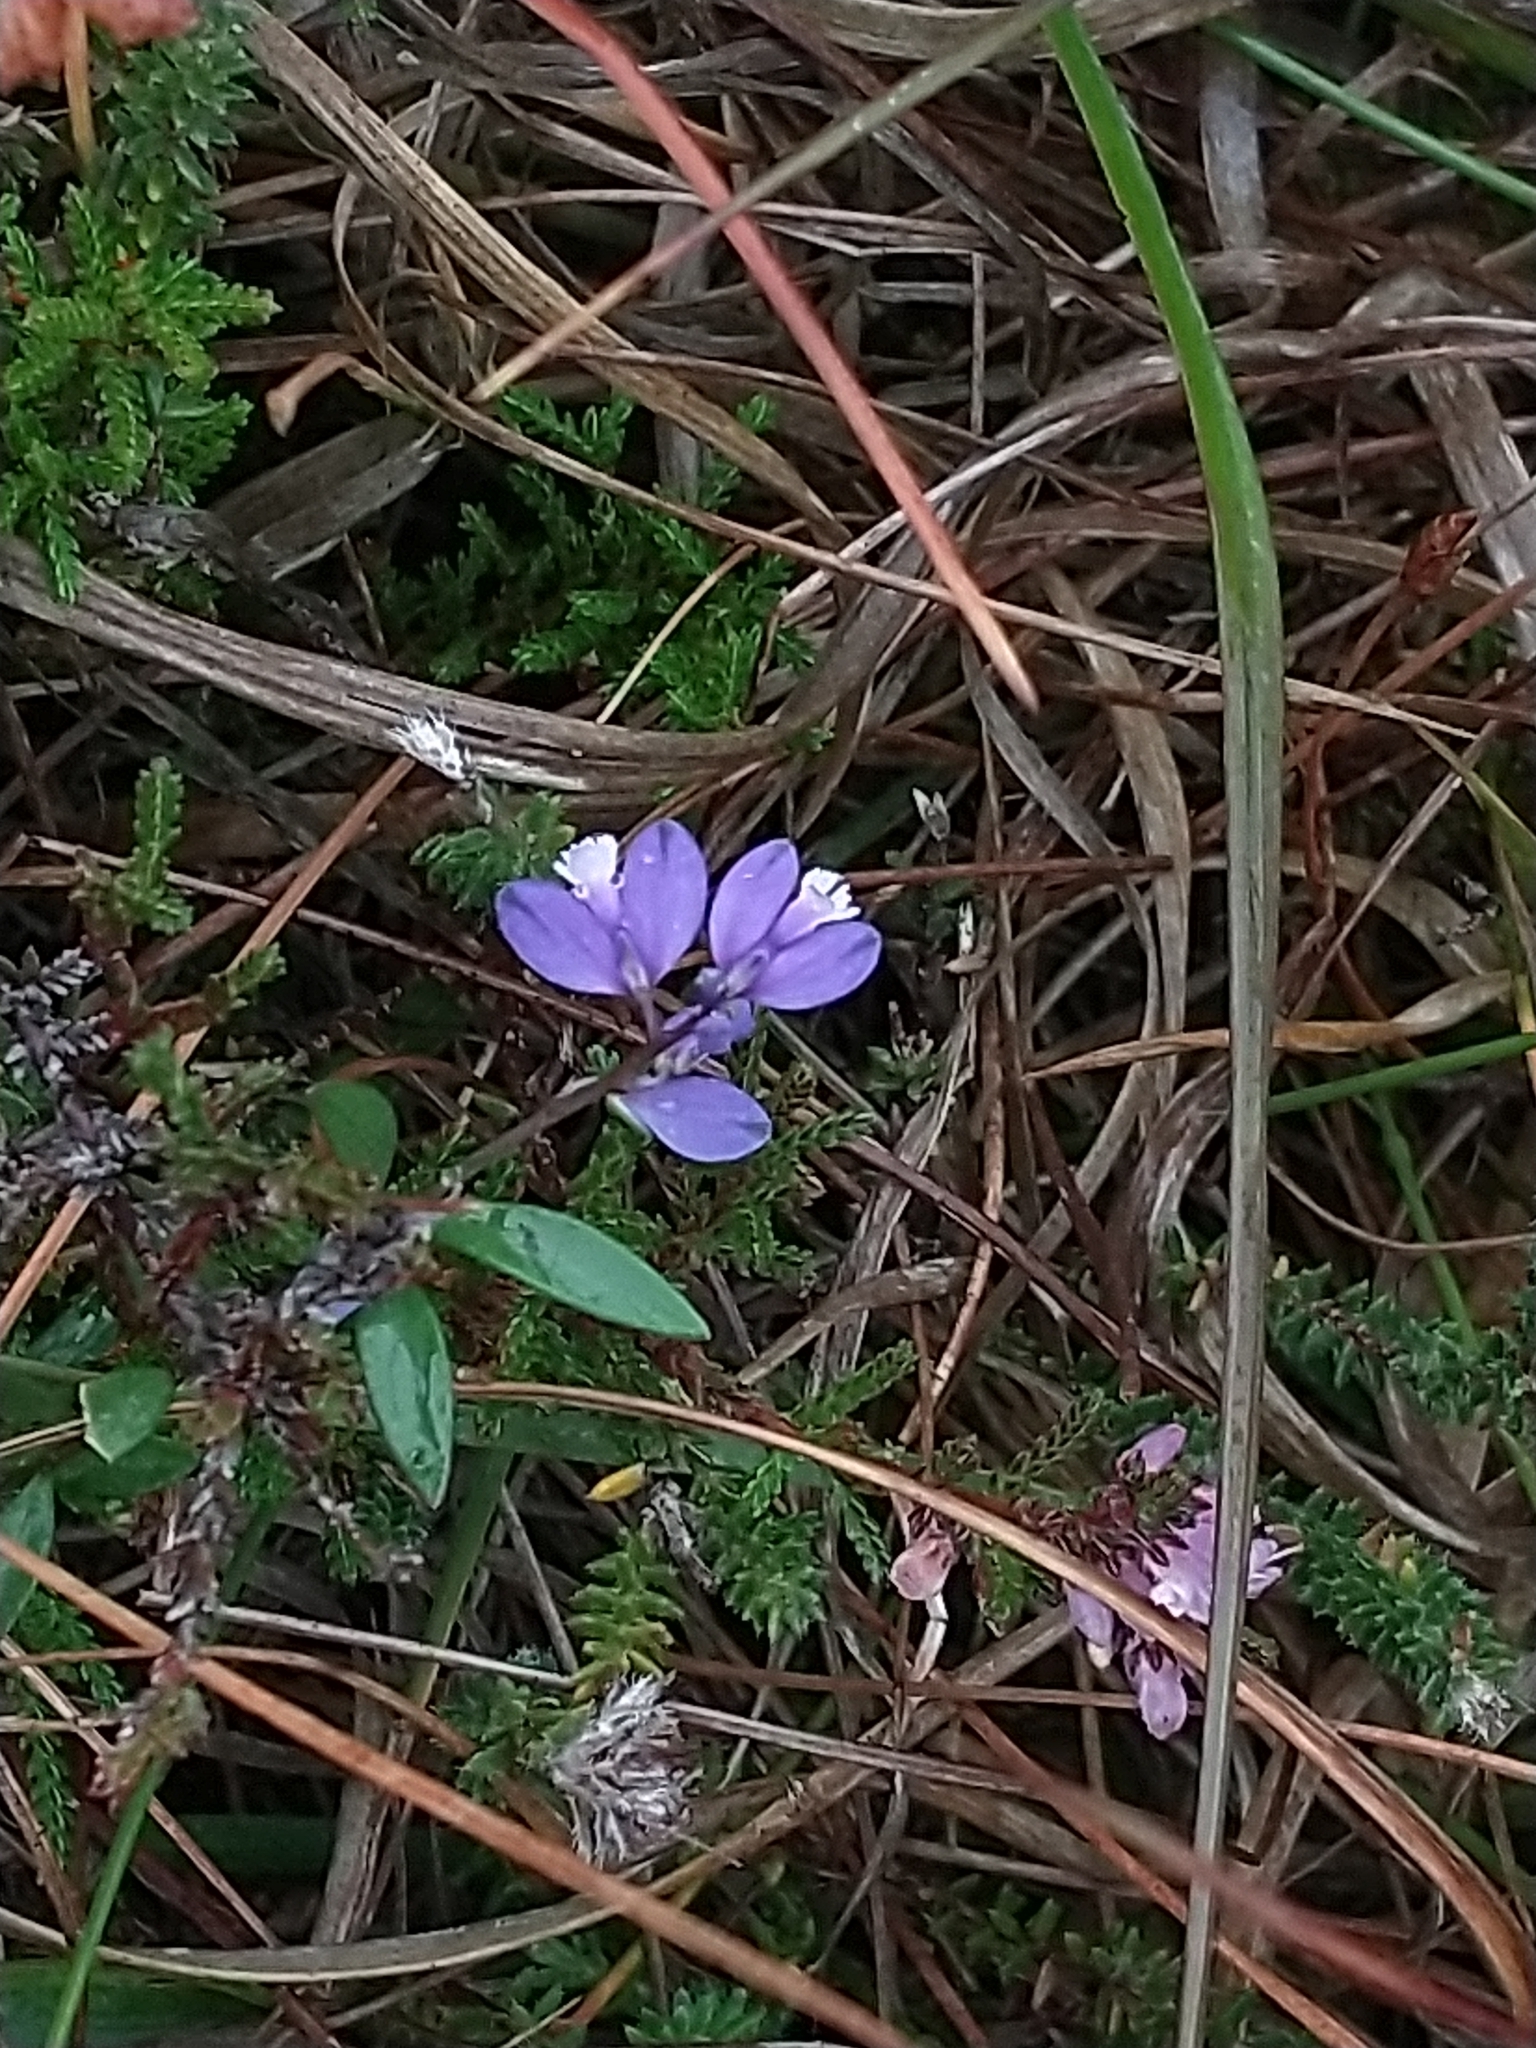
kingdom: Plantae
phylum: Tracheophyta
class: Magnoliopsida
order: Fabales
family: Polygalaceae
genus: Polygala
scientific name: Polygala serpyllifolia
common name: Heath milkwort
